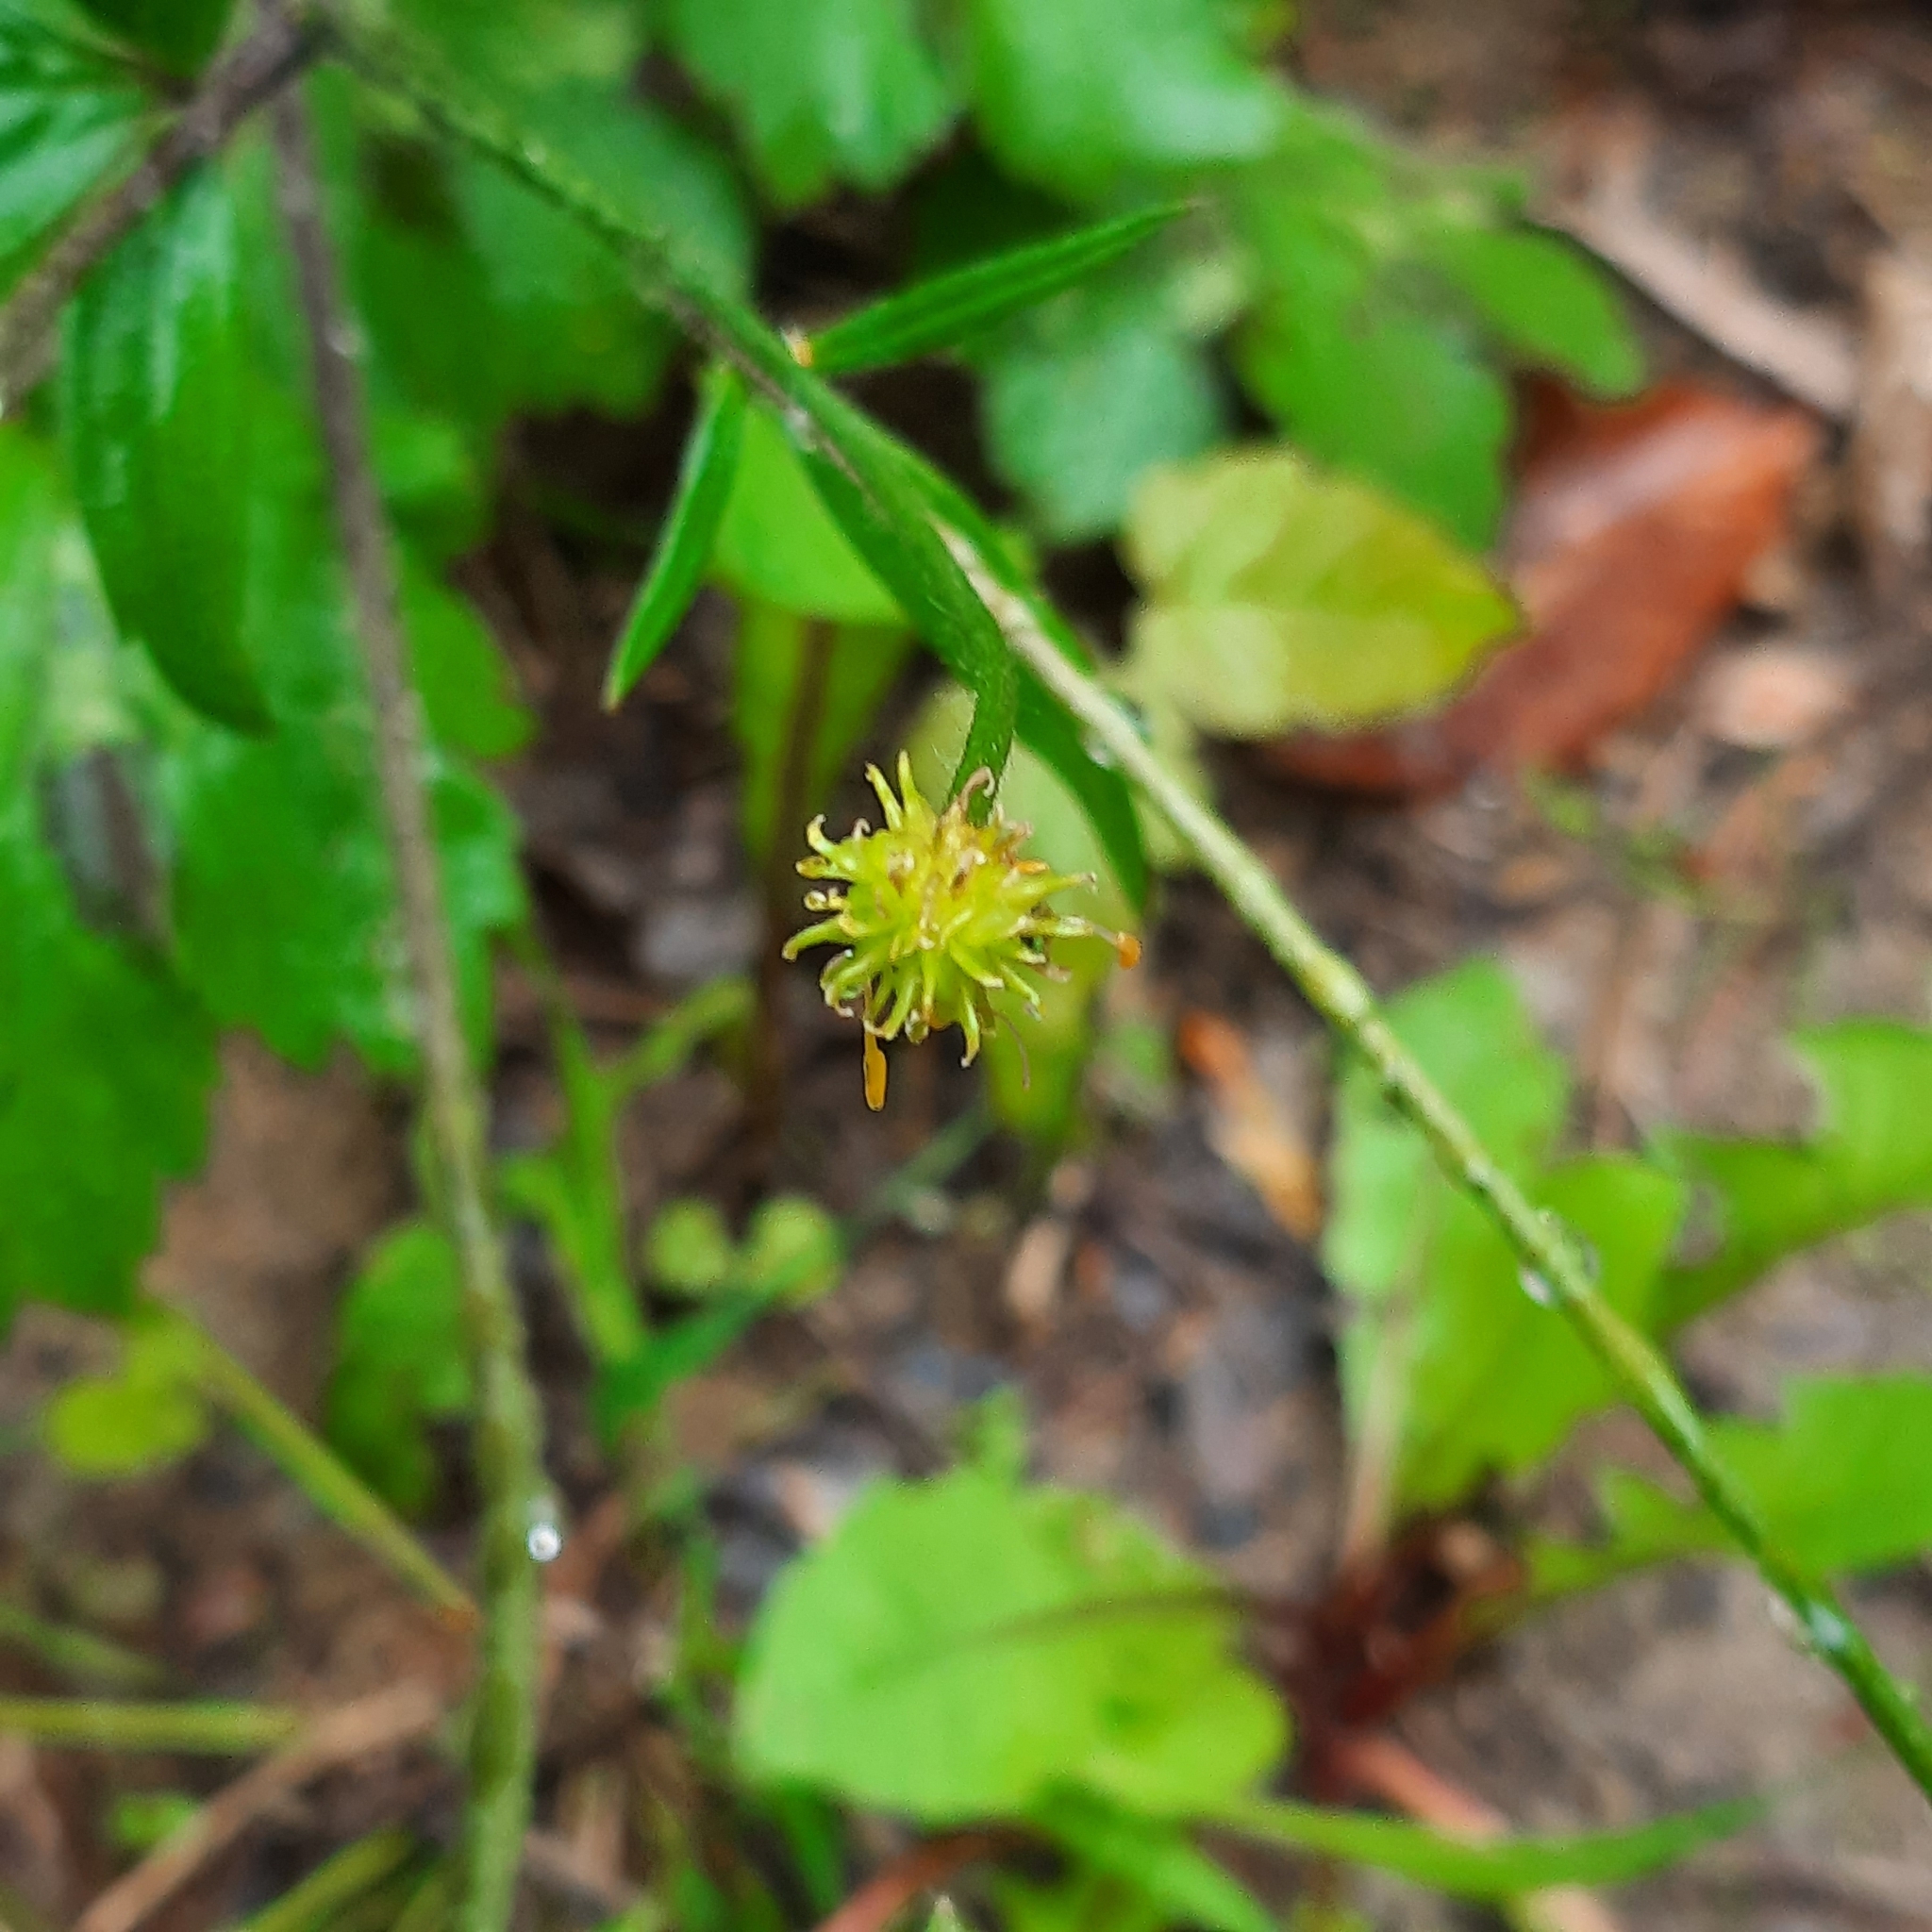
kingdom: Plantae
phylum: Tracheophyta
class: Magnoliopsida
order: Ranunculales
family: Ranunculaceae
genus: Ranunculus
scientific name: Ranunculus lanuginosus
